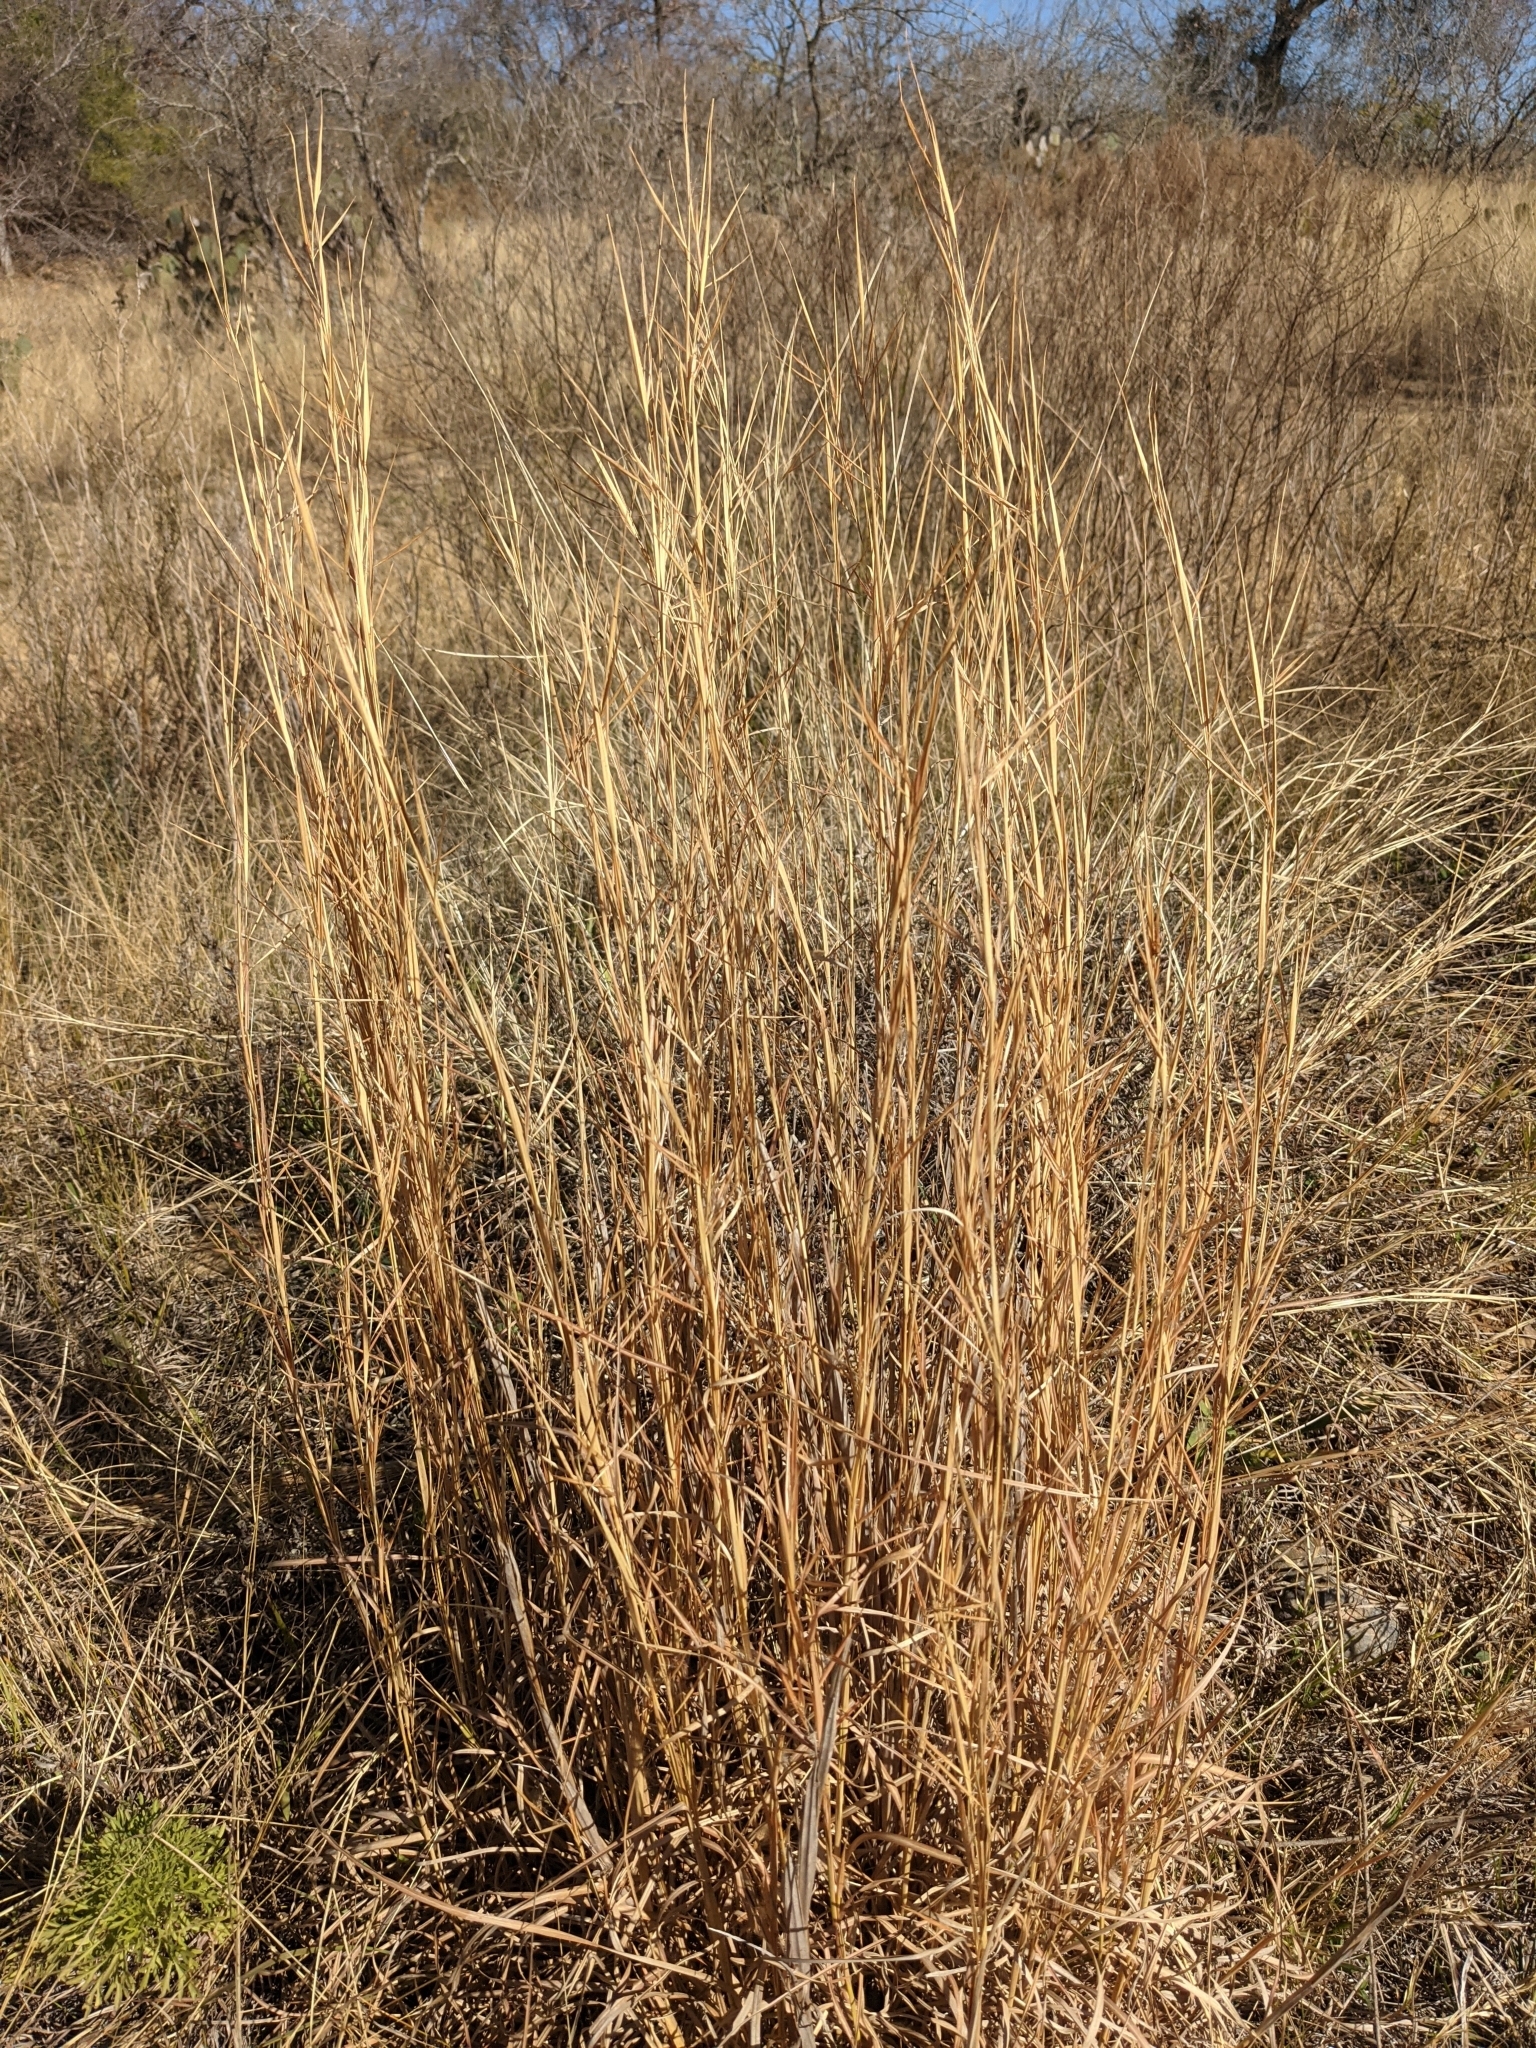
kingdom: Plantae
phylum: Tracheophyta
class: Liliopsida
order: Poales
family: Poaceae
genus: Andropogon
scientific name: Andropogon virginicus
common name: Broomsedge bluestem
